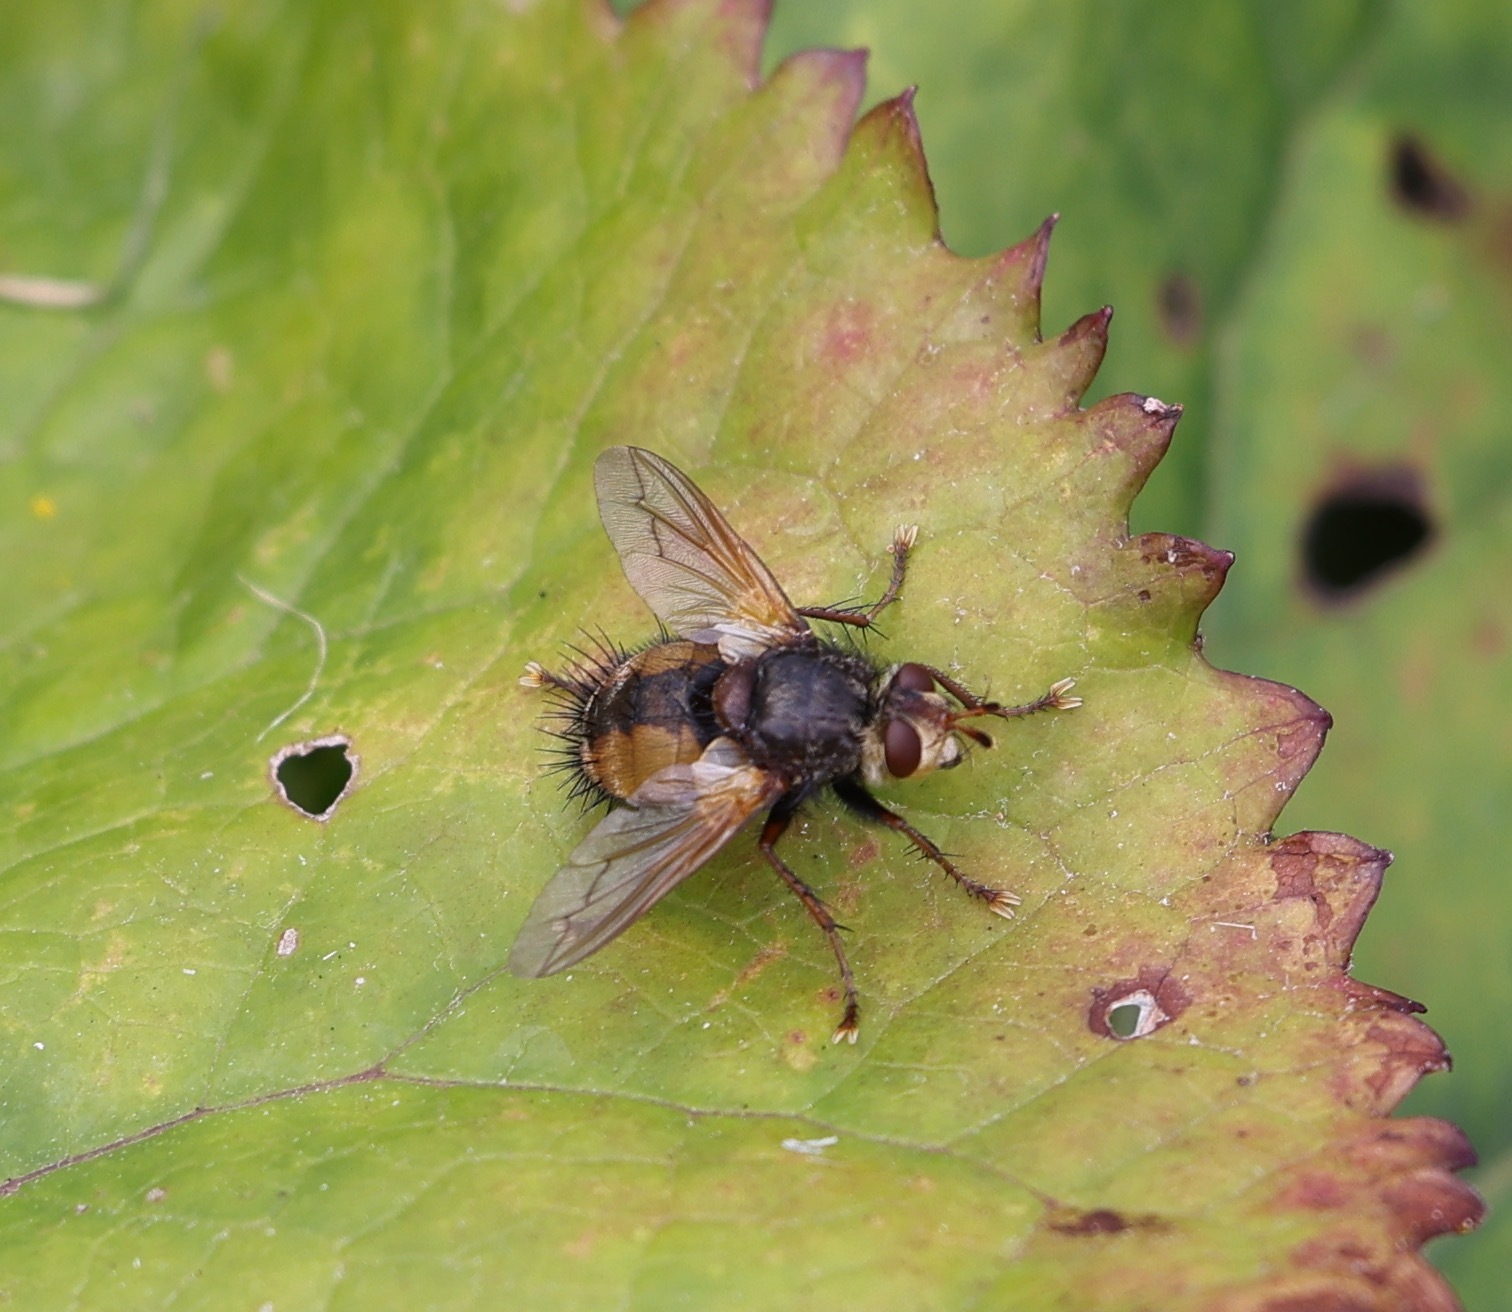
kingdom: Animalia
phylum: Arthropoda
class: Insecta
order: Diptera
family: Tachinidae
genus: Tachina
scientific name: Tachina fera
